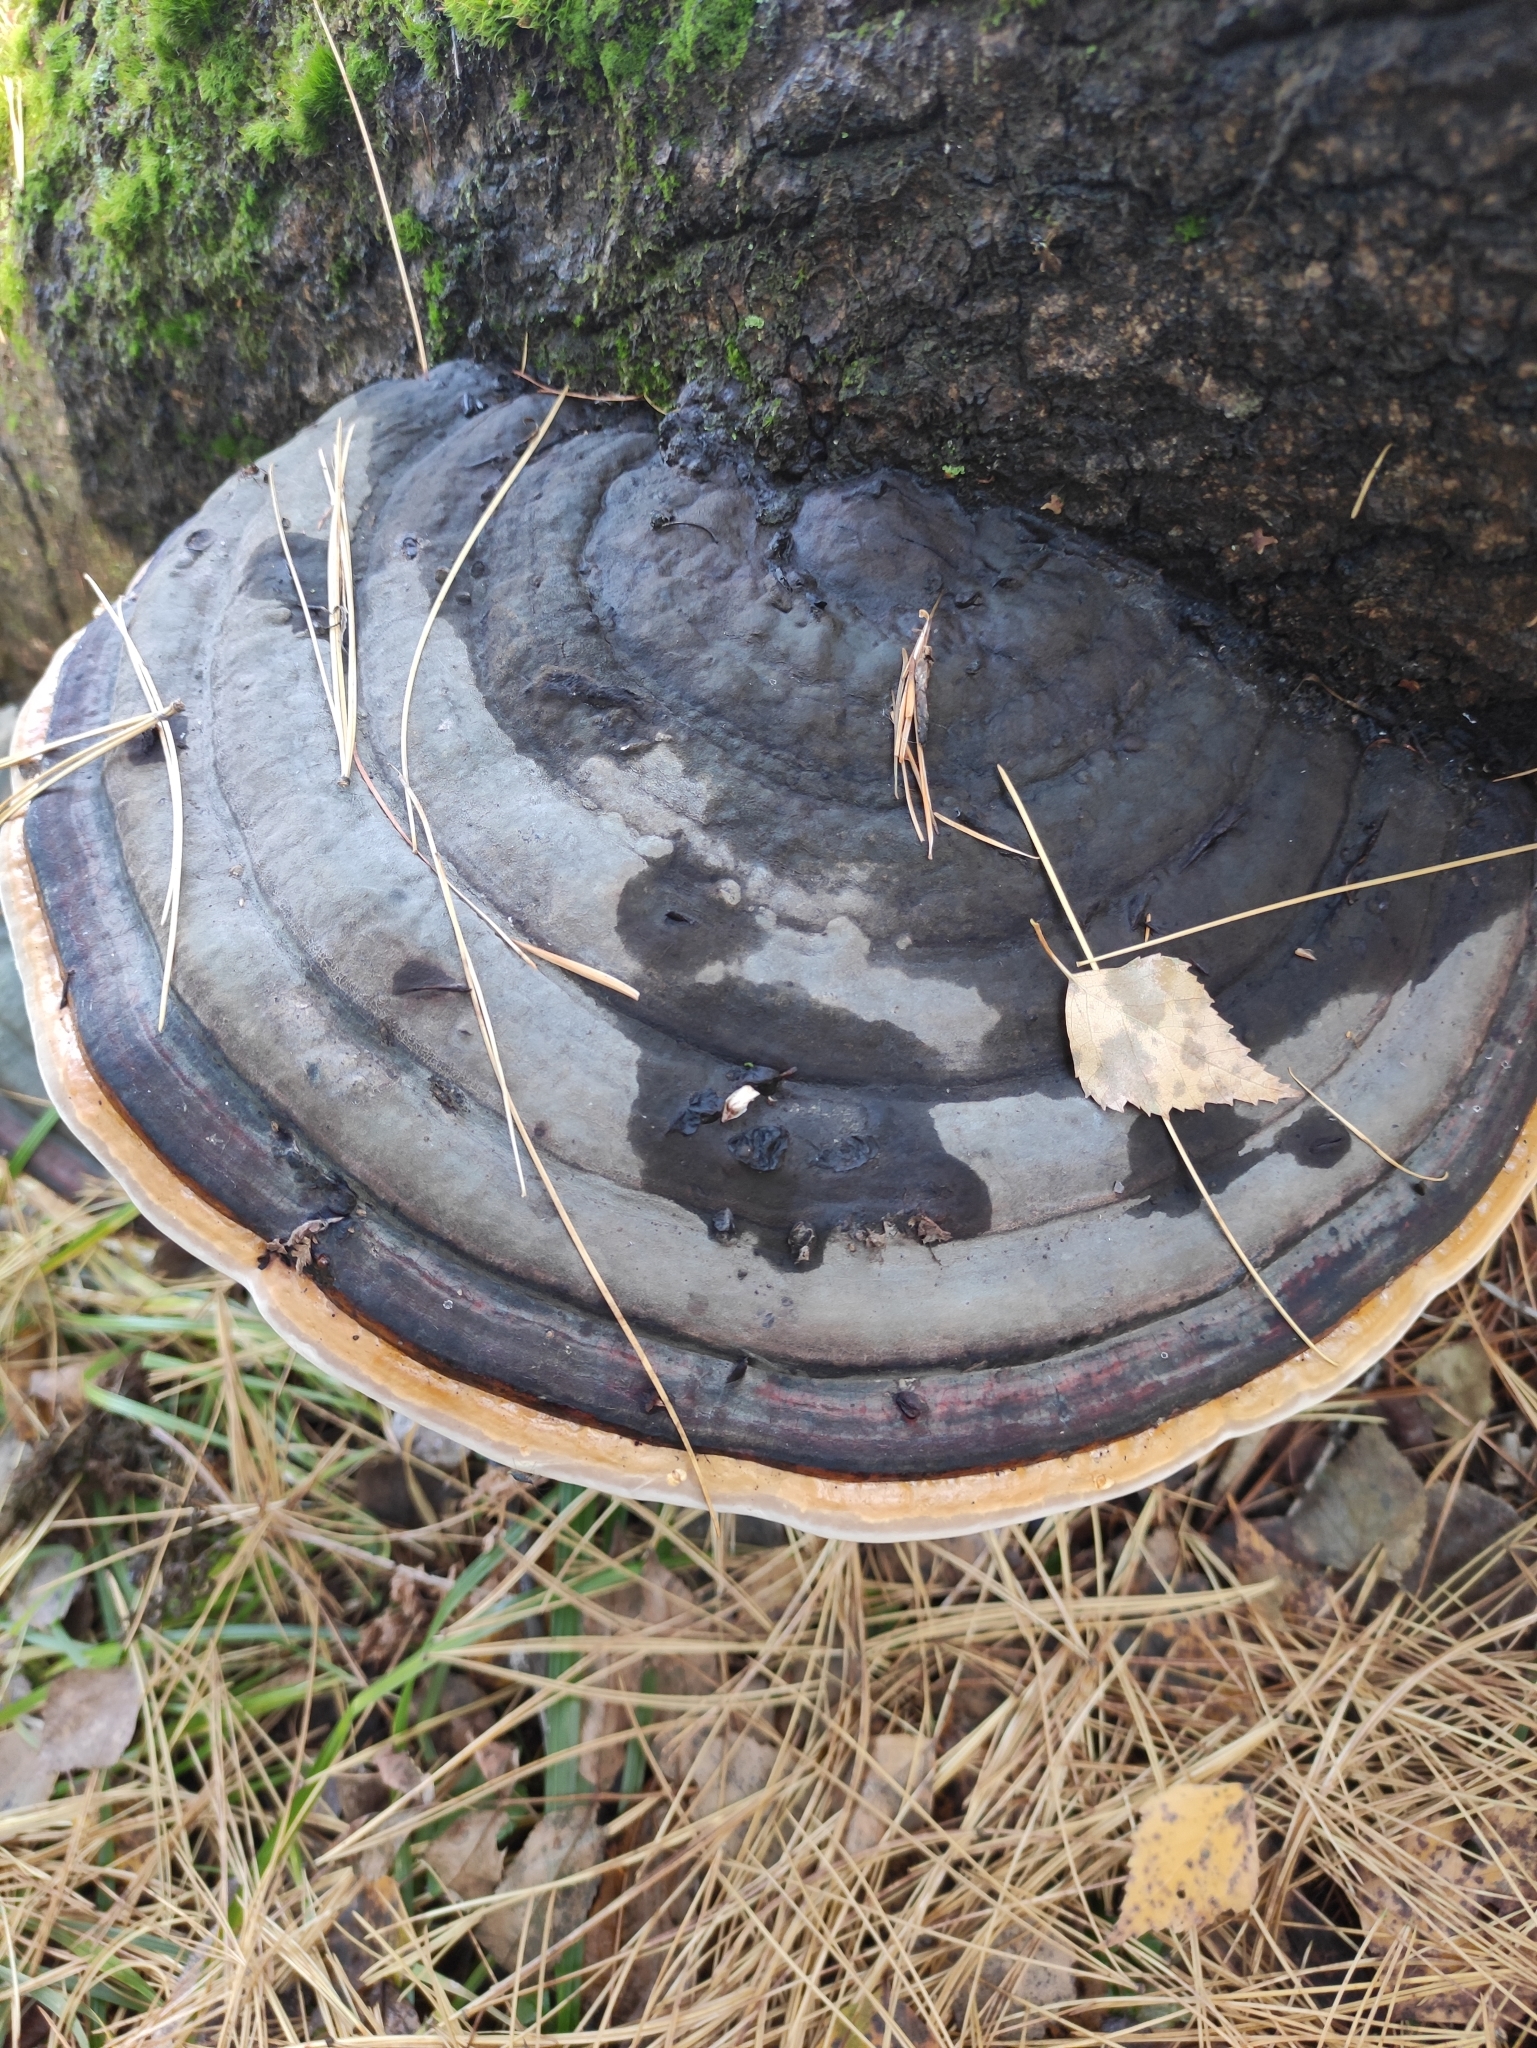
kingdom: Fungi
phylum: Basidiomycota
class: Agaricomycetes
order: Polyporales
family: Fomitopsidaceae
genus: Fomitopsis
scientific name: Fomitopsis pinicola
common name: Red-belted bracket
